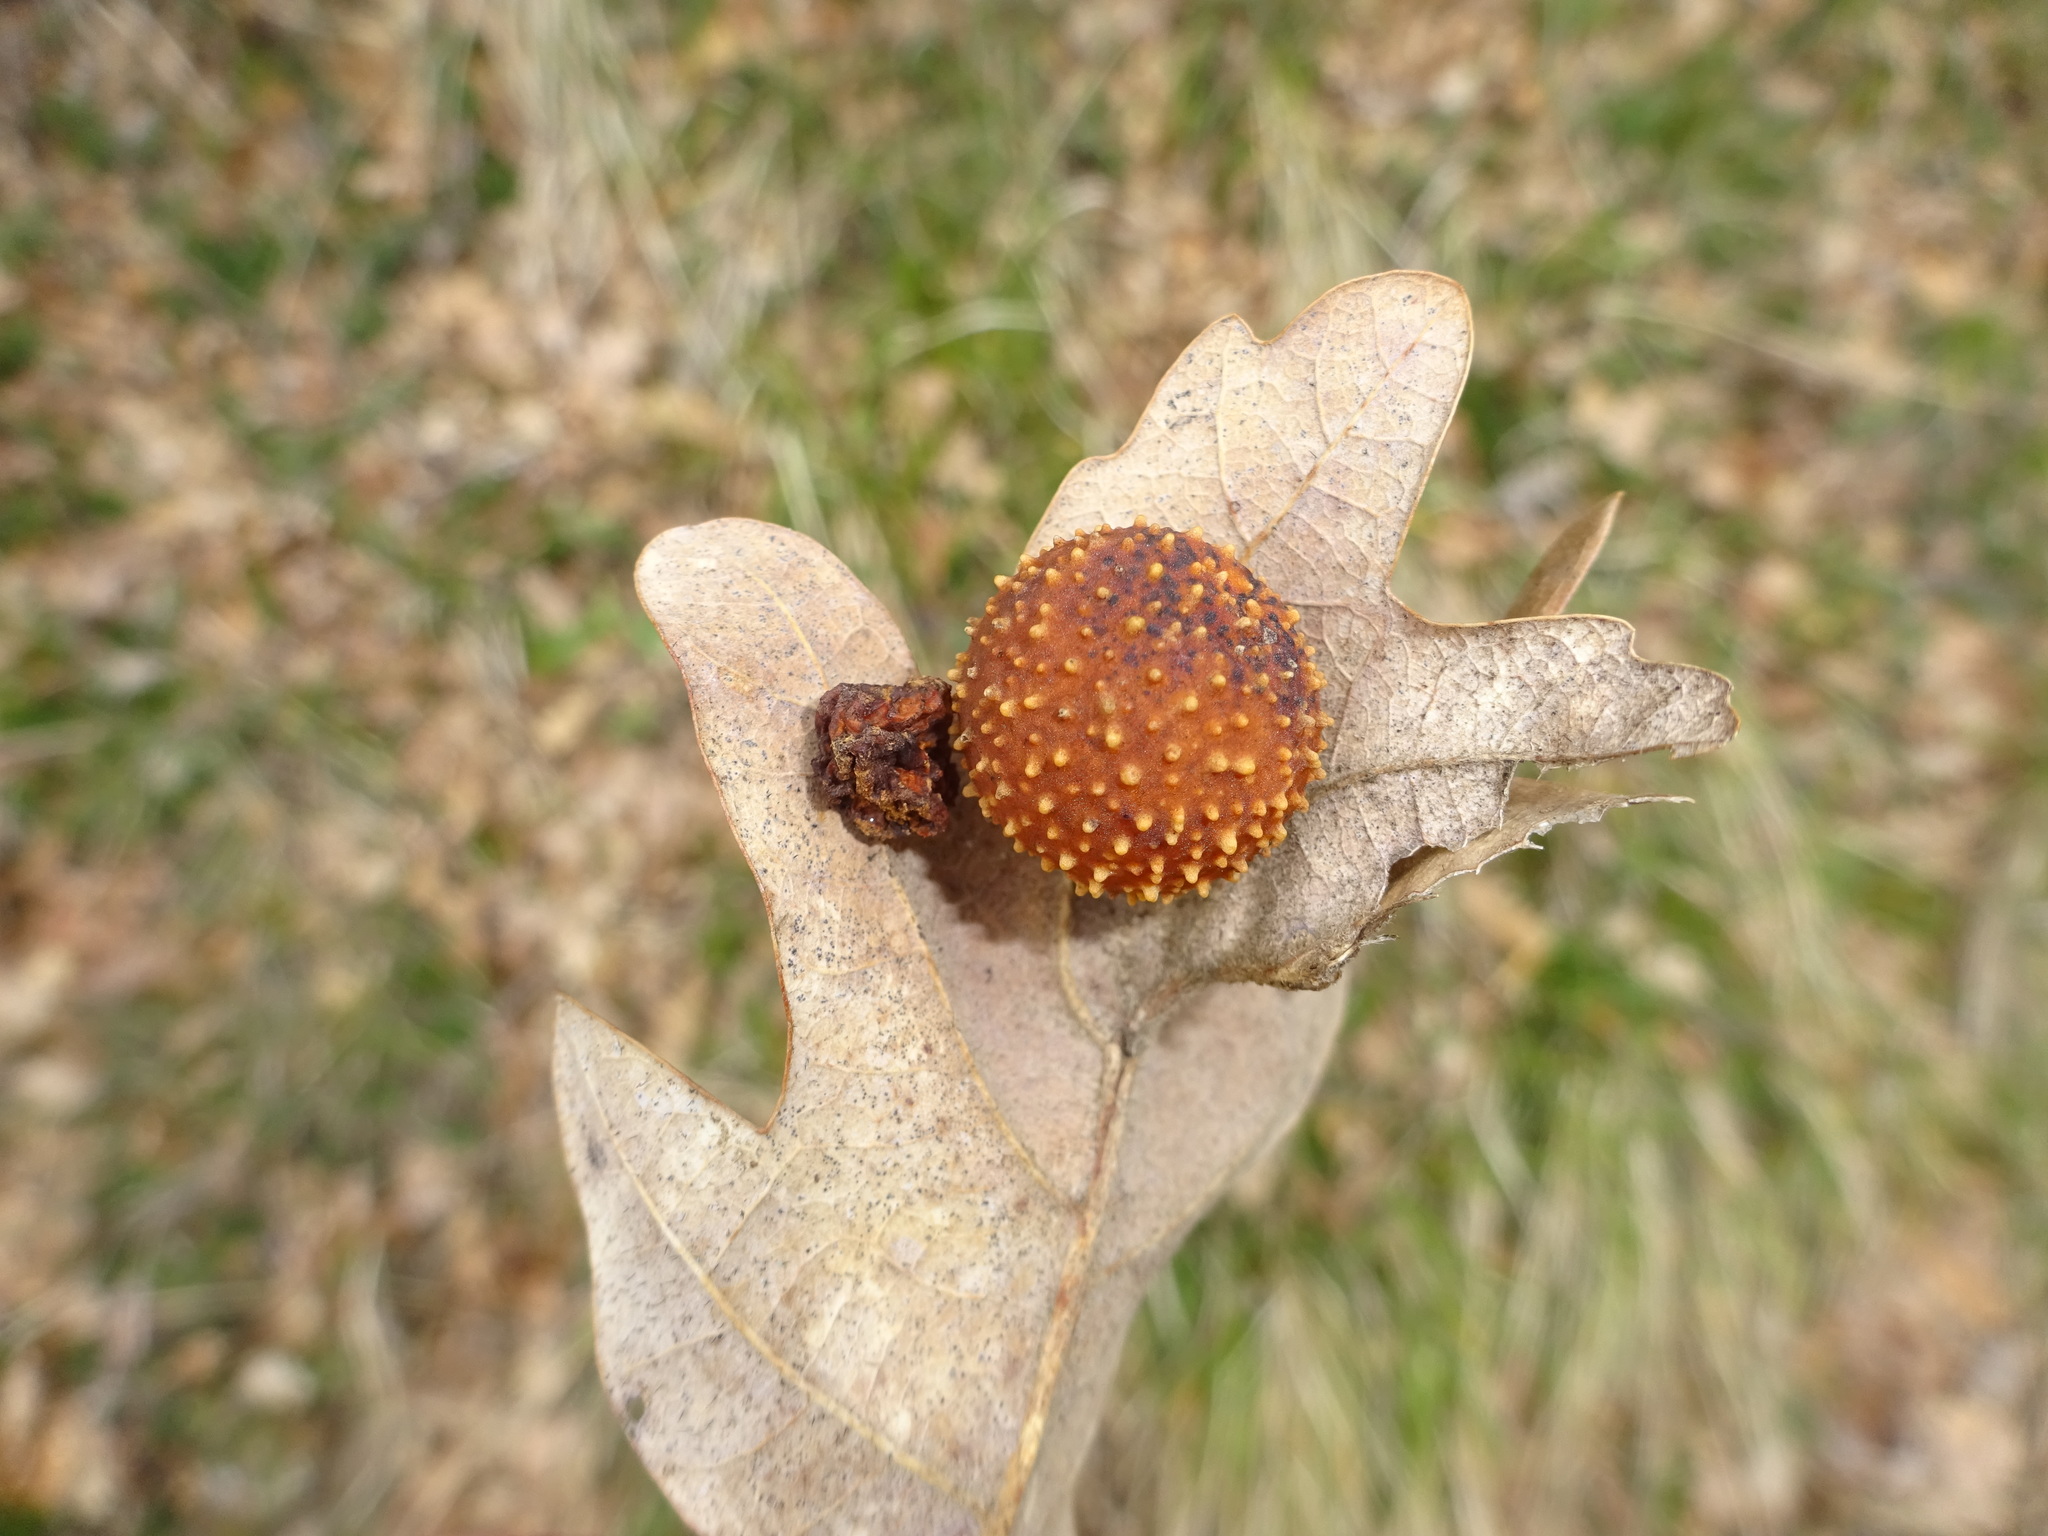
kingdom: Animalia
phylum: Arthropoda
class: Insecta
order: Hymenoptera
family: Cynipidae
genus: Cynips
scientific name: Cynips quercusfolii
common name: Cherry gall
